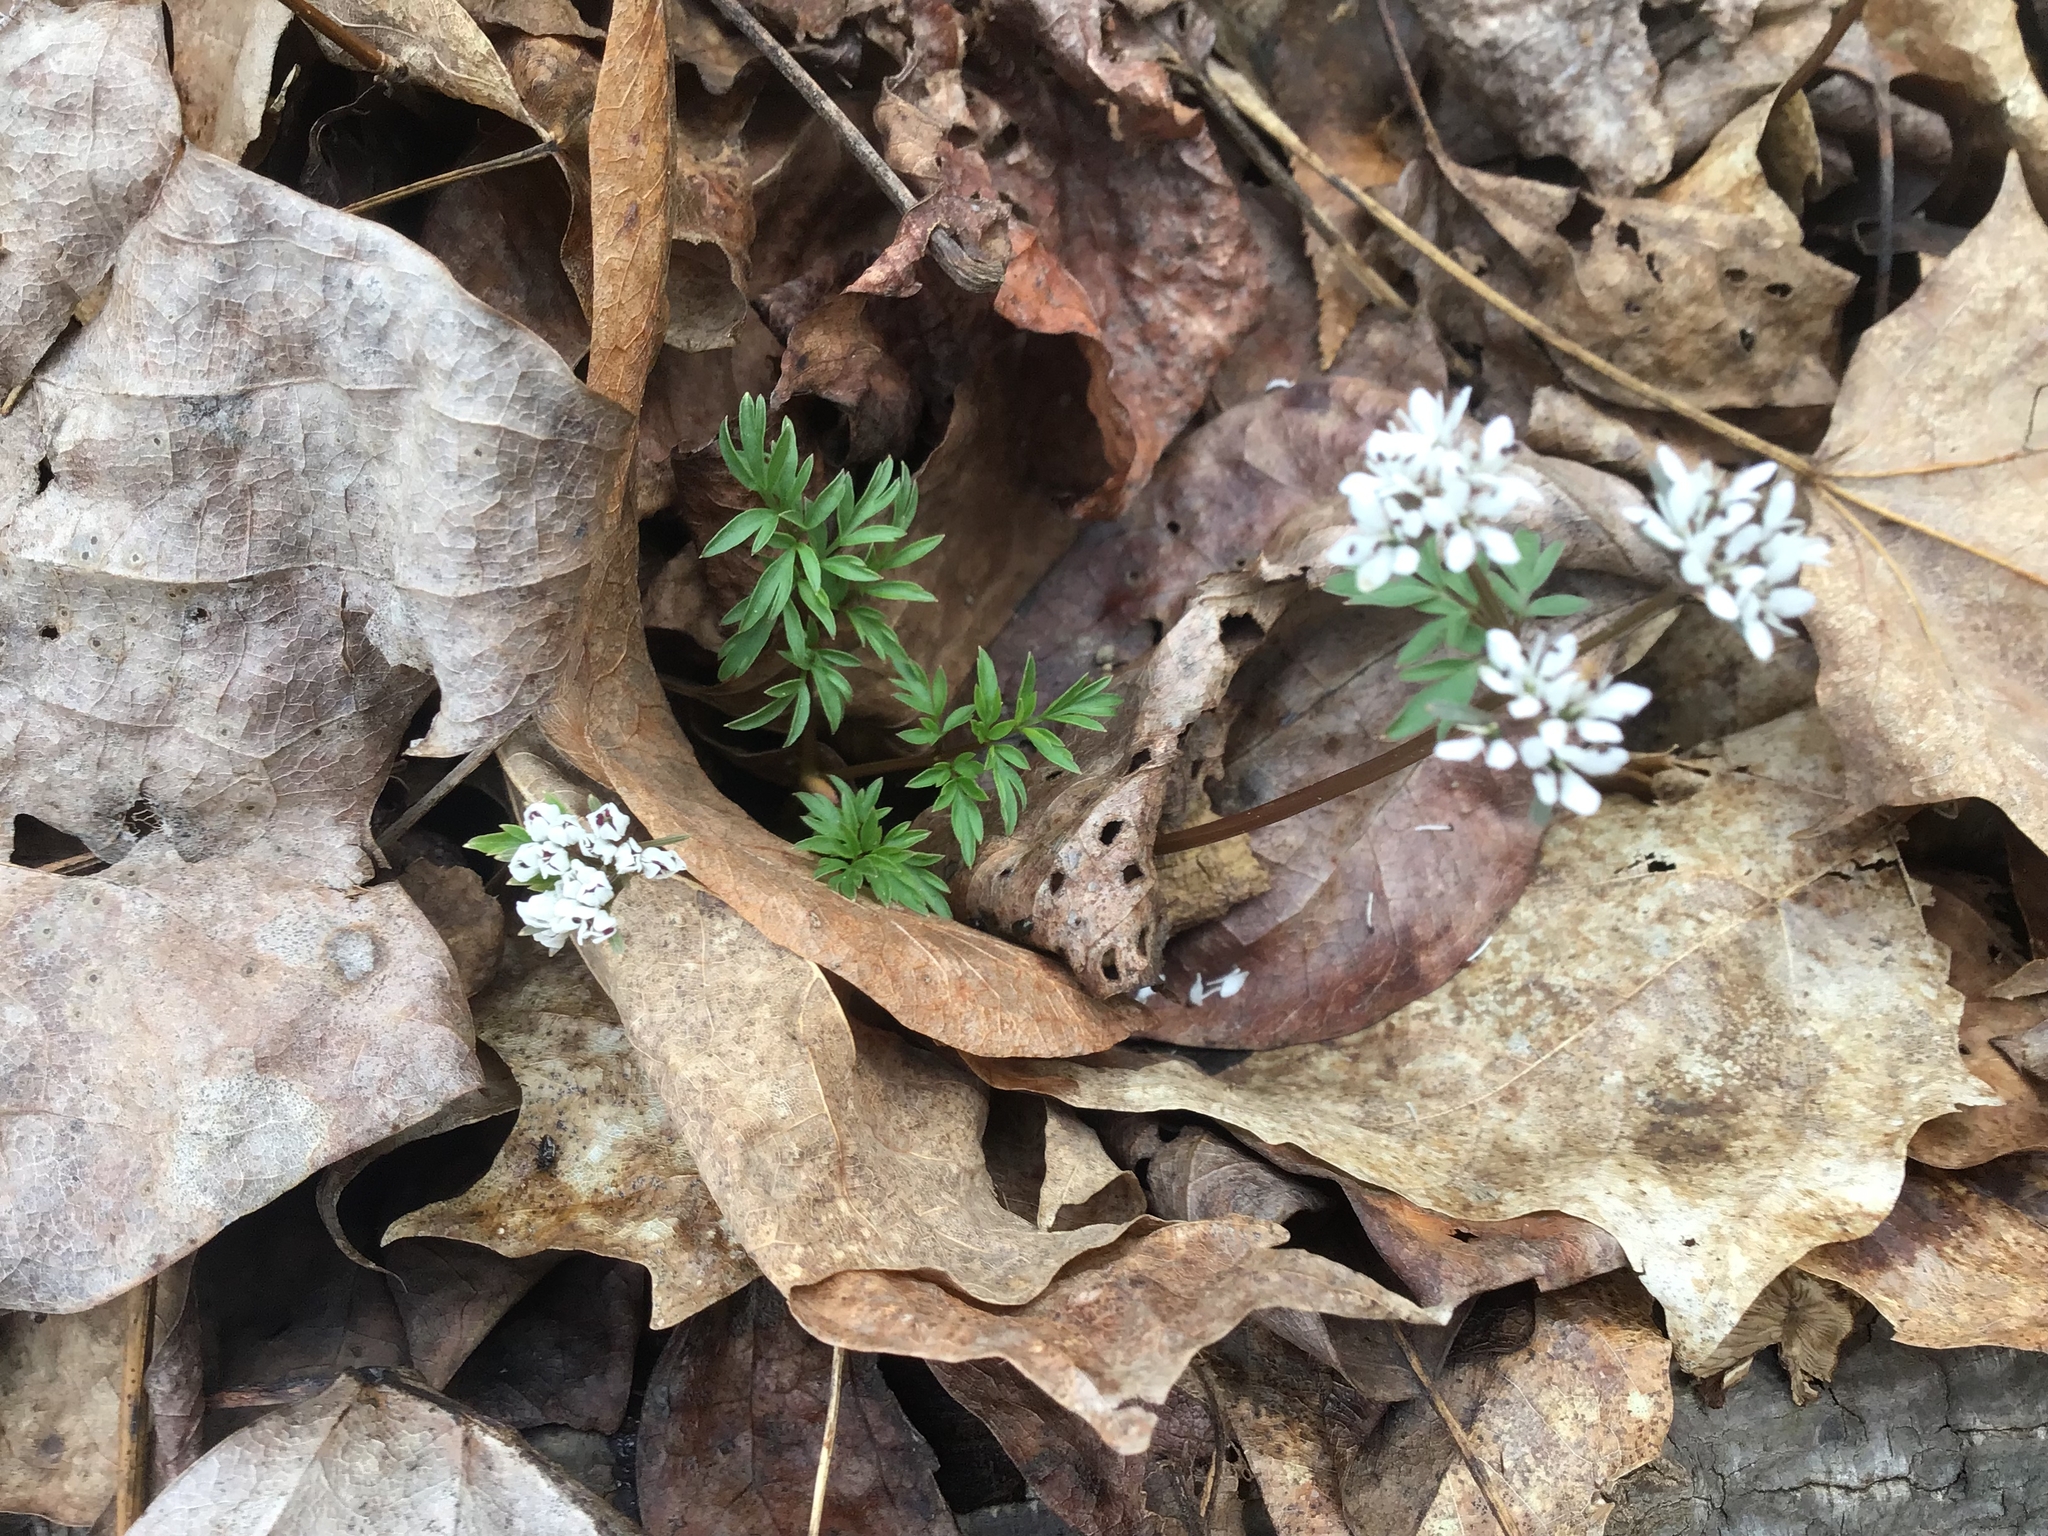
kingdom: Plantae
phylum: Tracheophyta
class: Magnoliopsida
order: Apiales
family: Apiaceae
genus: Erigenia
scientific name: Erigenia bulbosa
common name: Pepper-and-salt
